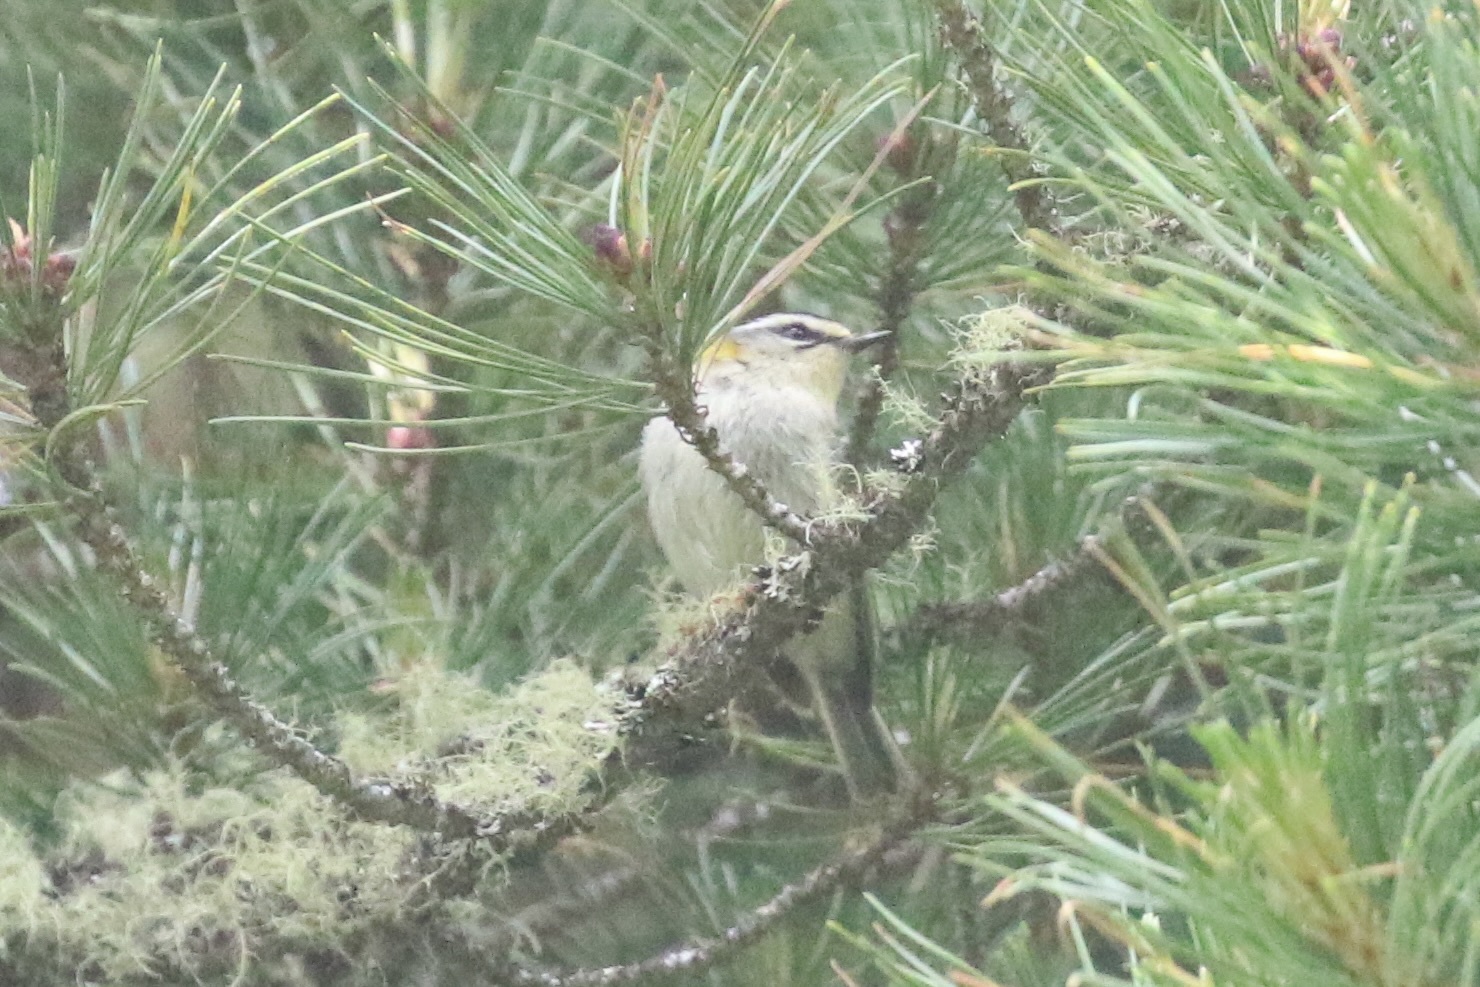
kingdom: Animalia
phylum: Chordata
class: Aves
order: Passeriformes
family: Regulidae
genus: Regulus
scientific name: Regulus ignicapilla
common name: Firecrest
